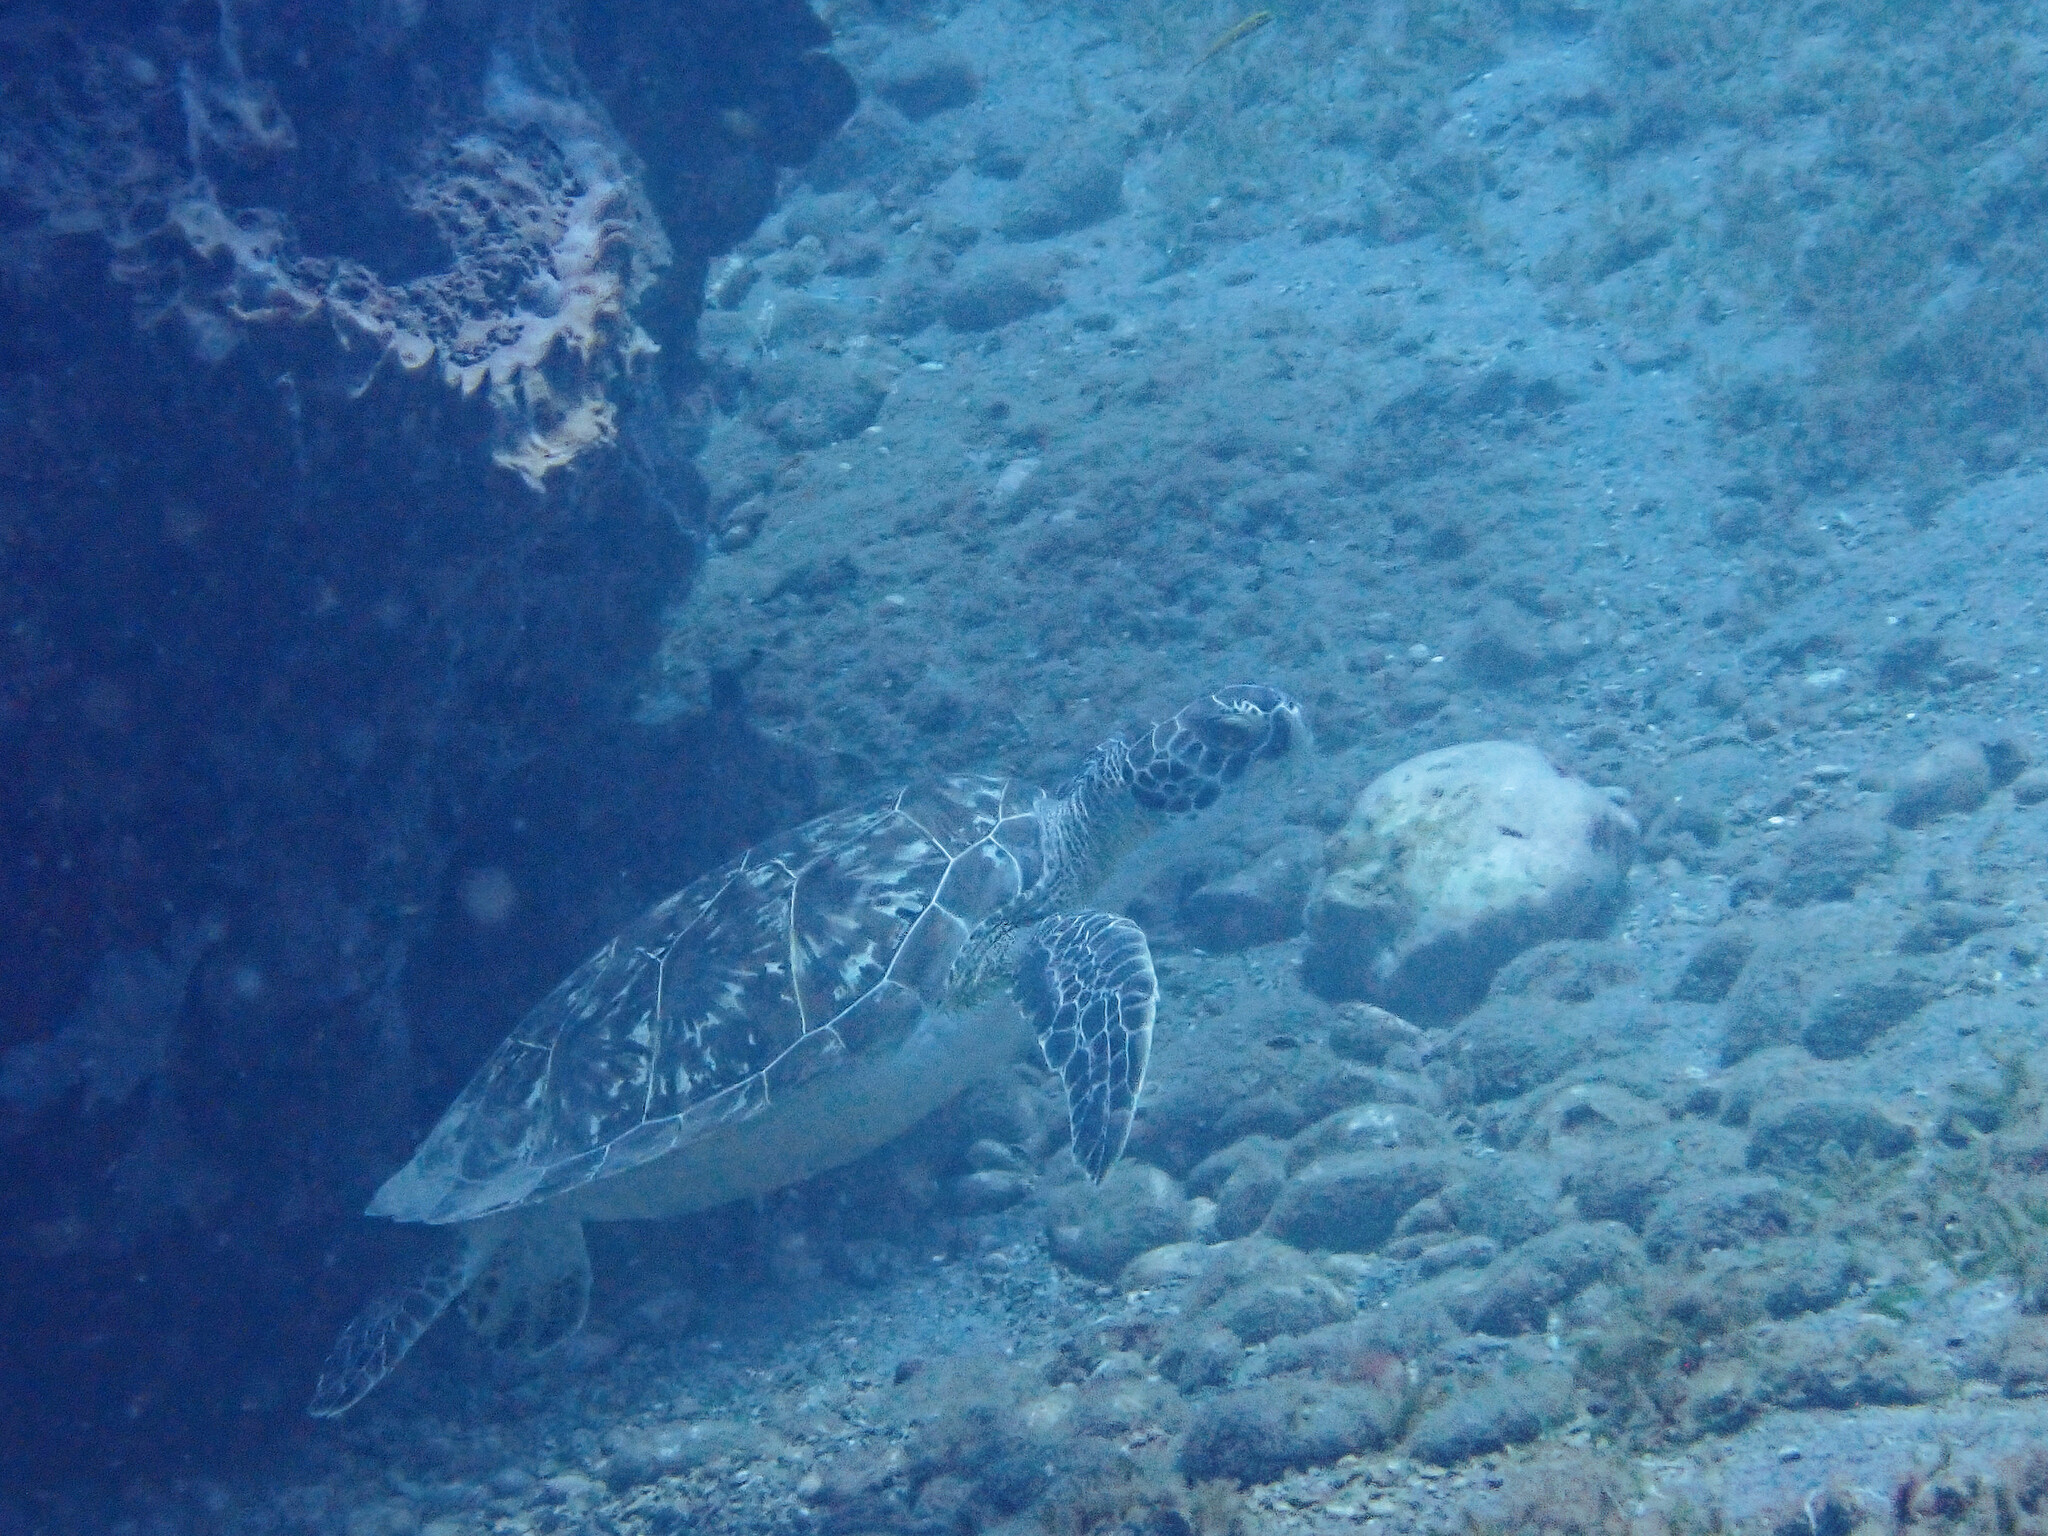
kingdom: Animalia
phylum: Chordata
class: Testudines
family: Cheloniidae
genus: Chelonia
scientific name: Chelonia mydas
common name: Green turtle
